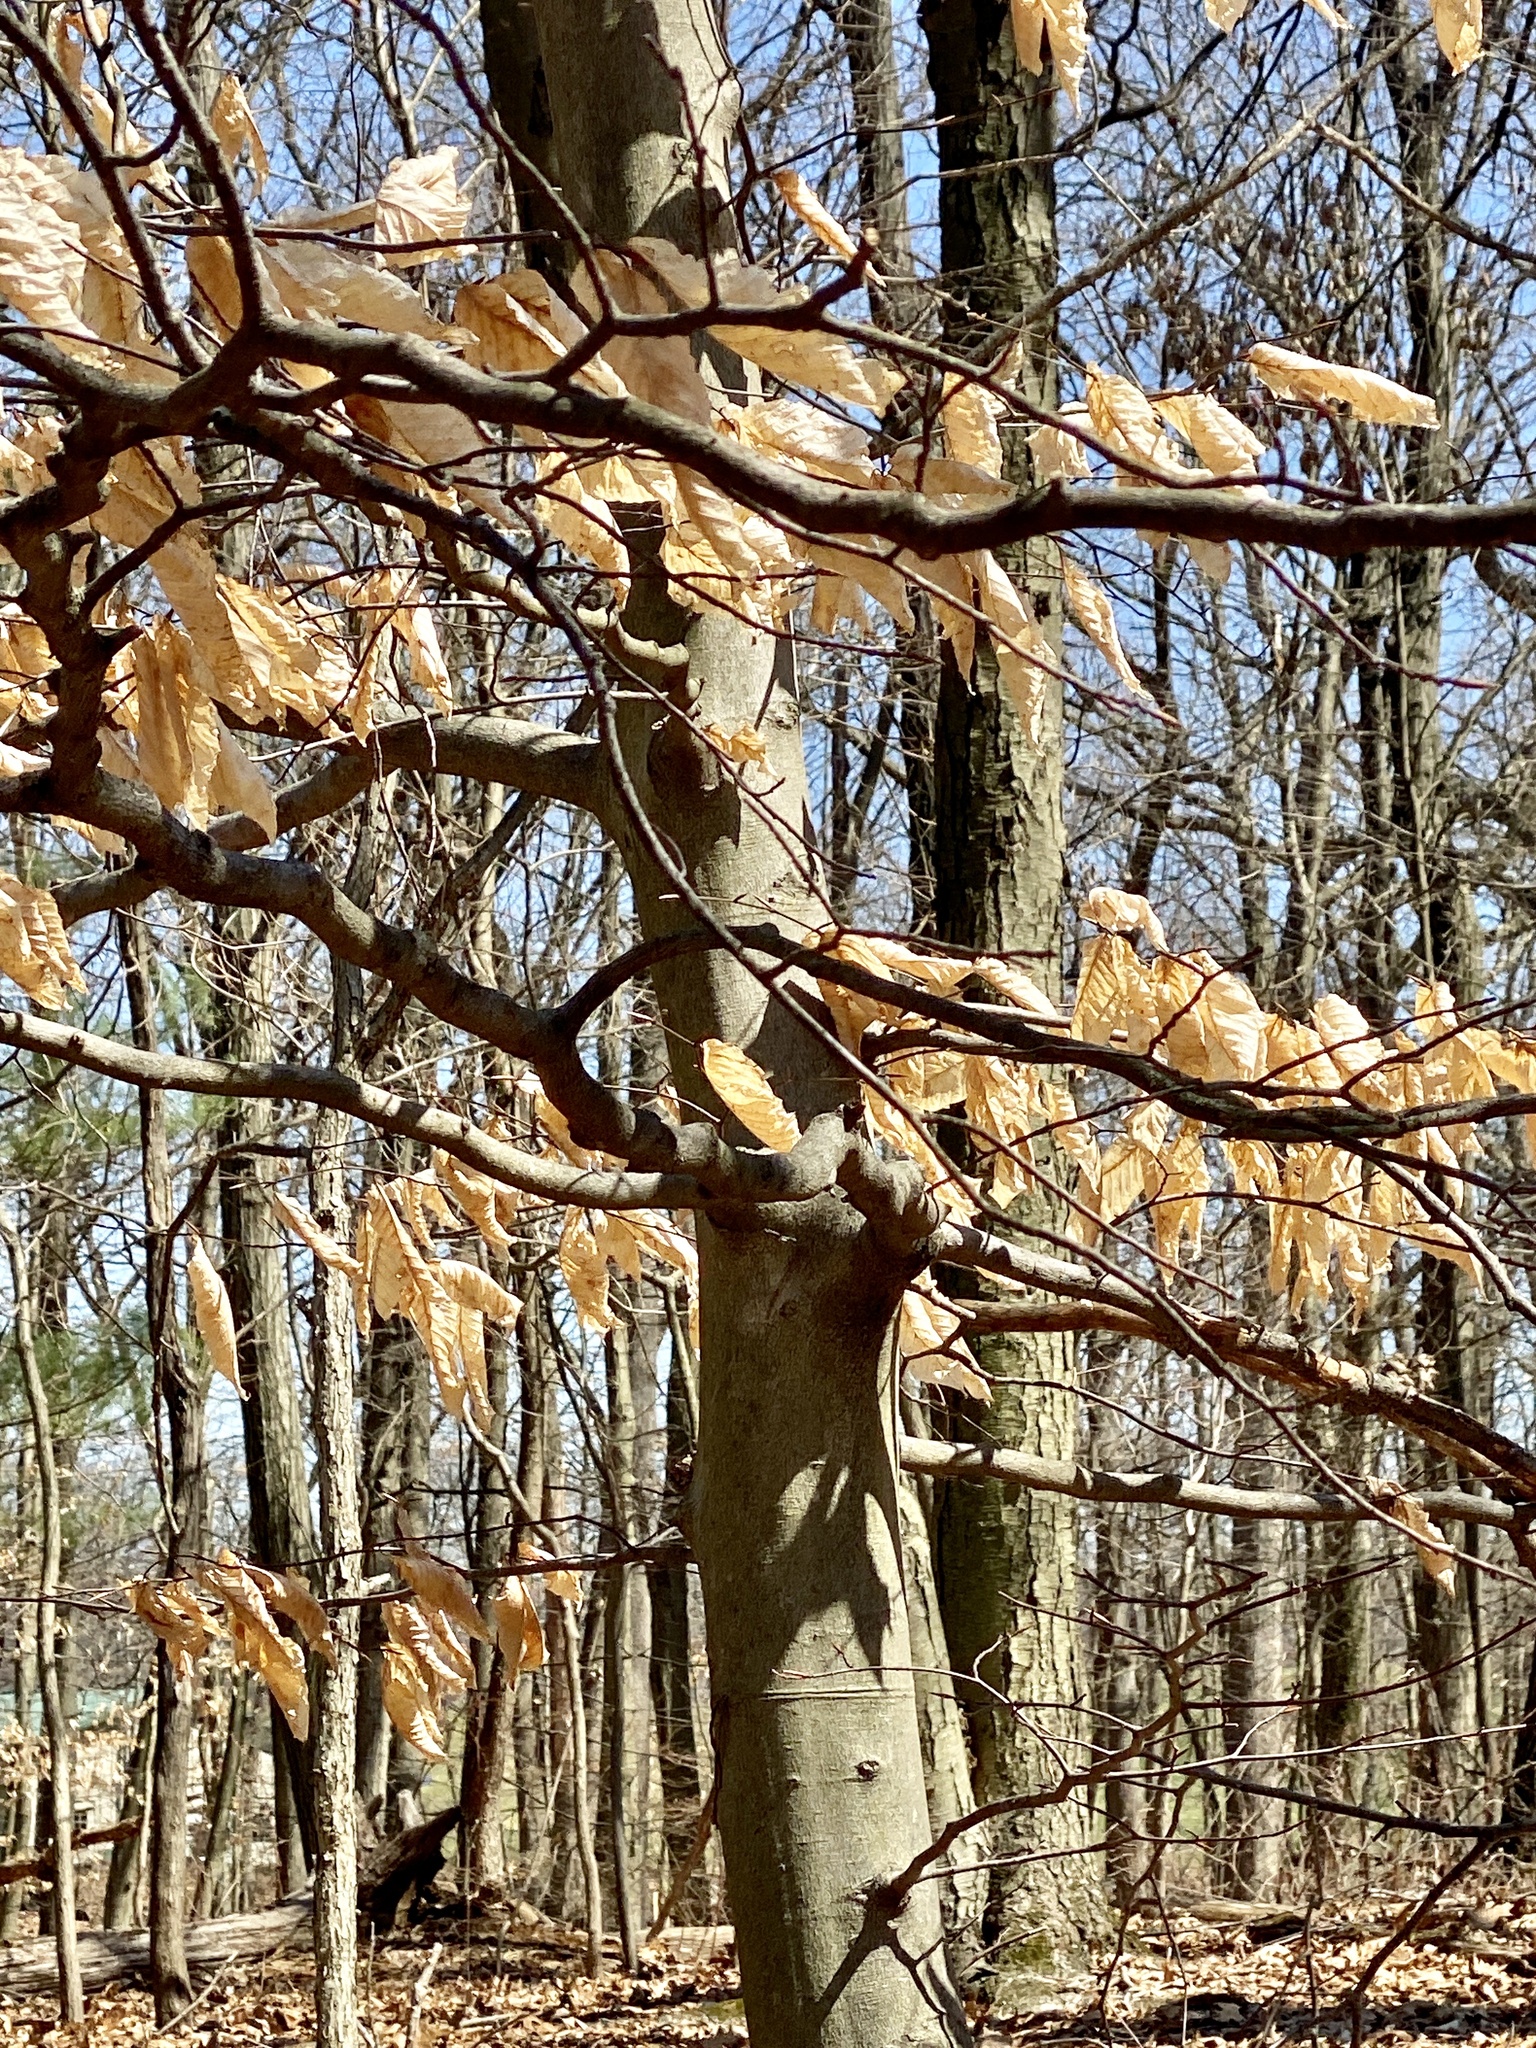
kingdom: Plantae
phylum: Tracheophyta
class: Magnoliopsida
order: Fagales
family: Fagaceae
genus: Fagus
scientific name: Fagus grandifolia
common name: American beech
